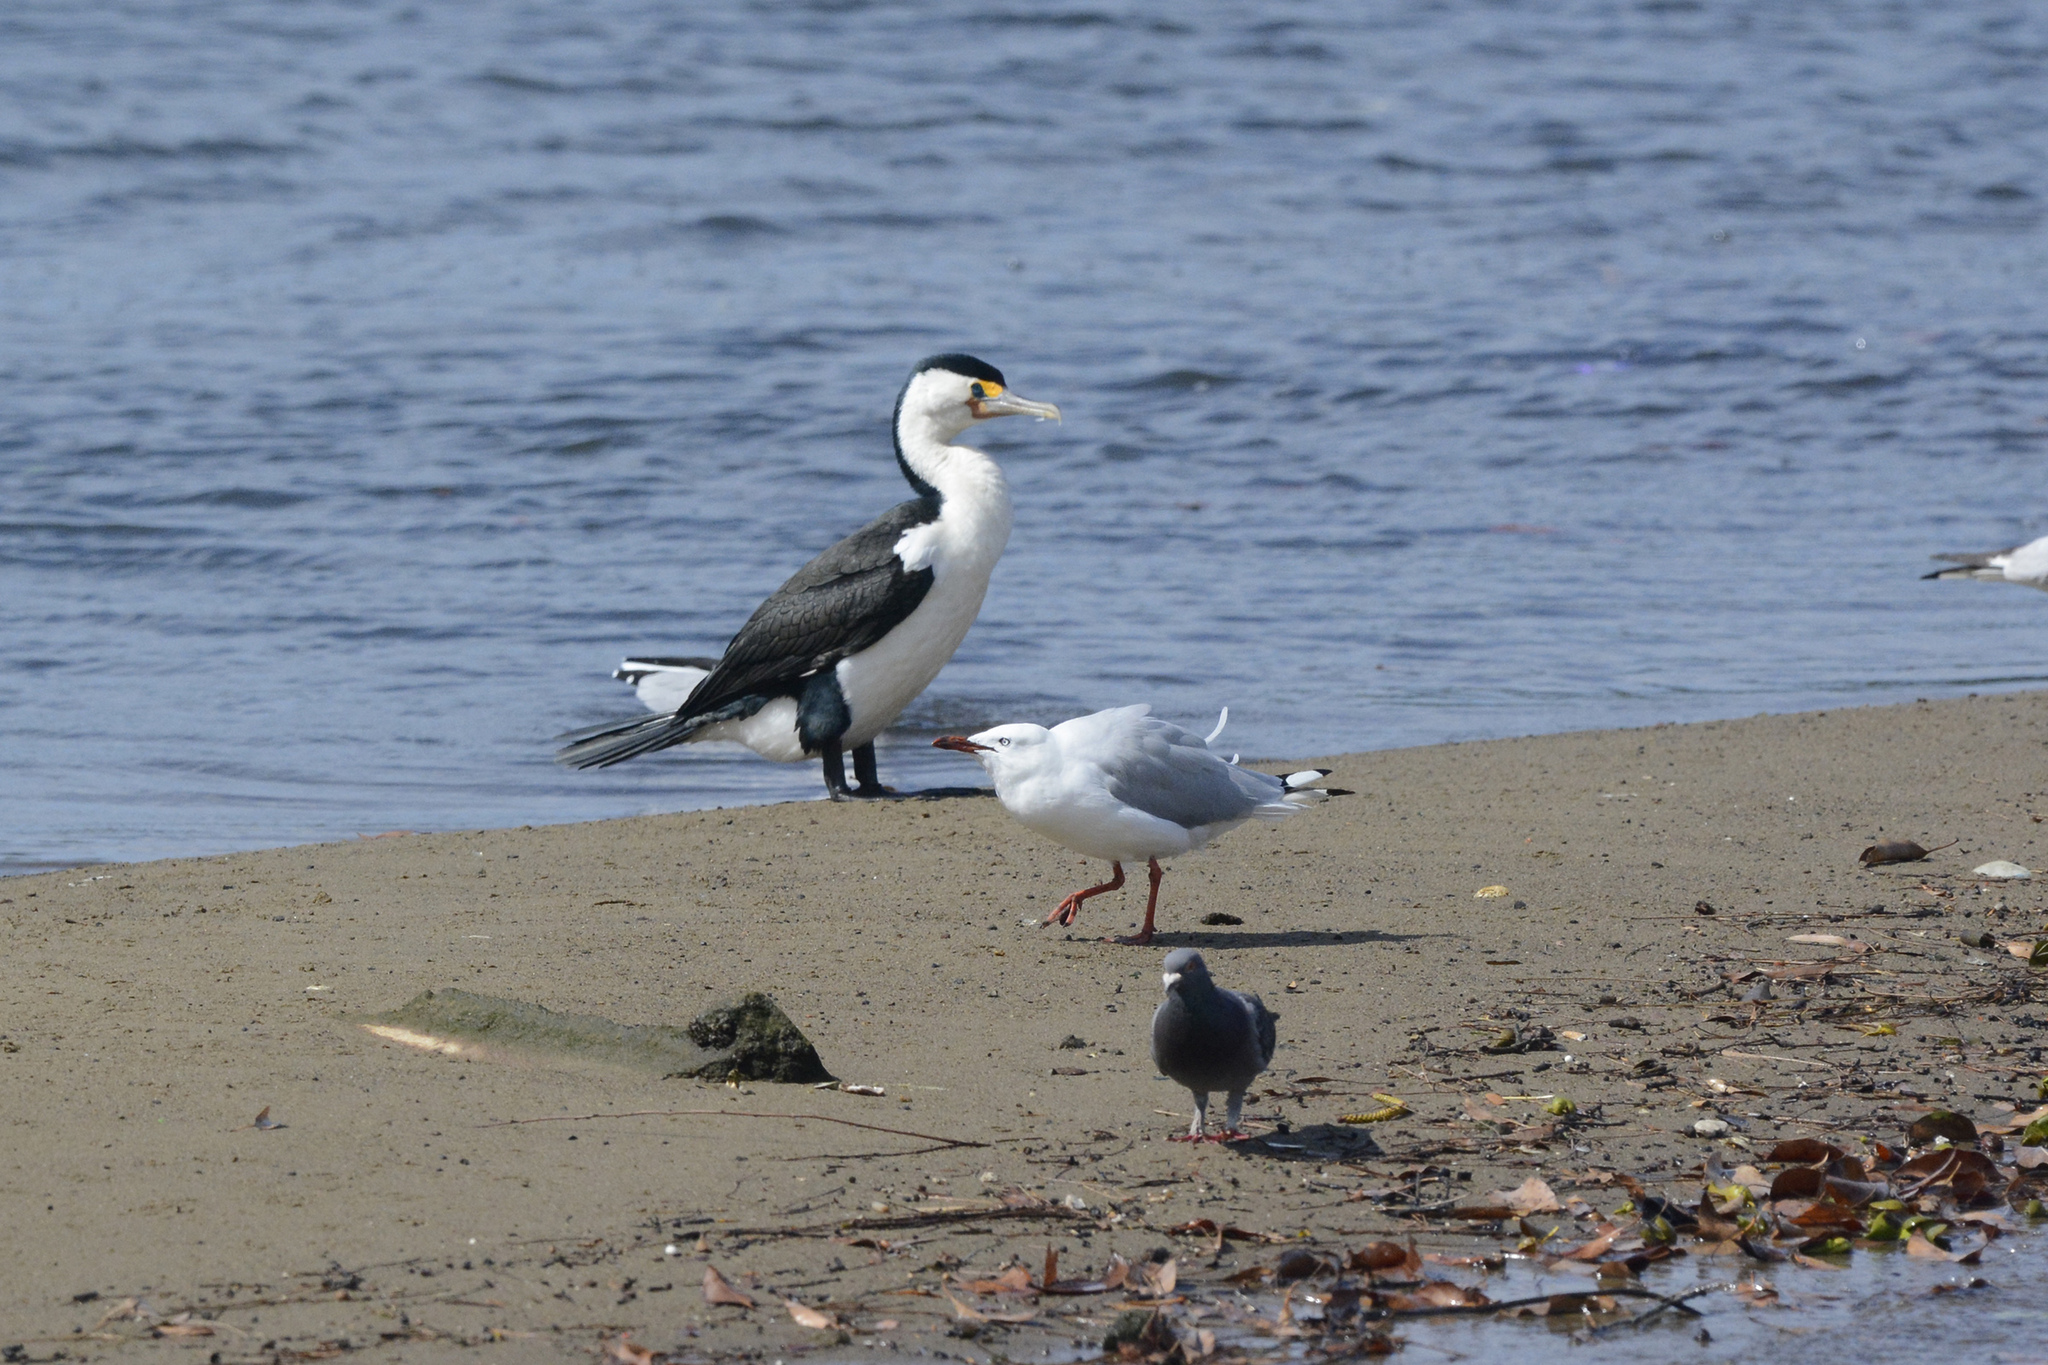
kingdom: Animalia
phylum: Chordata
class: Aves
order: Suliformes
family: Phalacrocoracidae
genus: Phalacrocorax
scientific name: Phalacrocorax varius
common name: Pied cormorant
